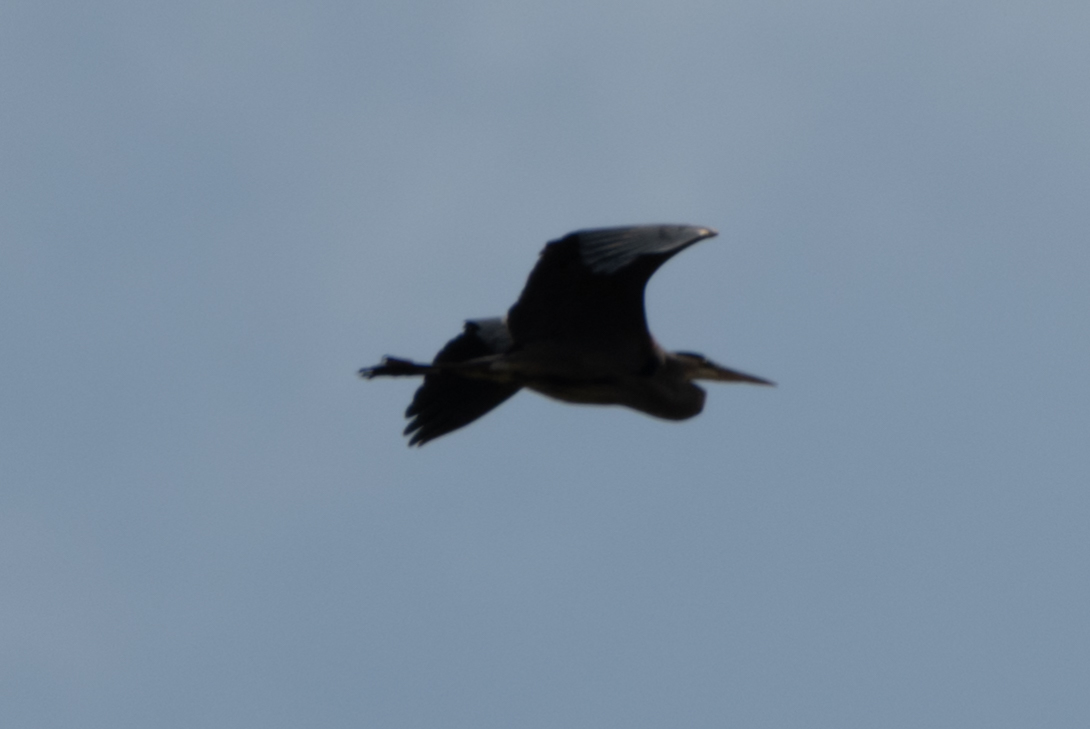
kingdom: Animalia
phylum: Chordata
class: Aves
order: Pelecaniformes
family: Ardeidae
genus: Ardea
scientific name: Ardea herodias
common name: Great blue heron
